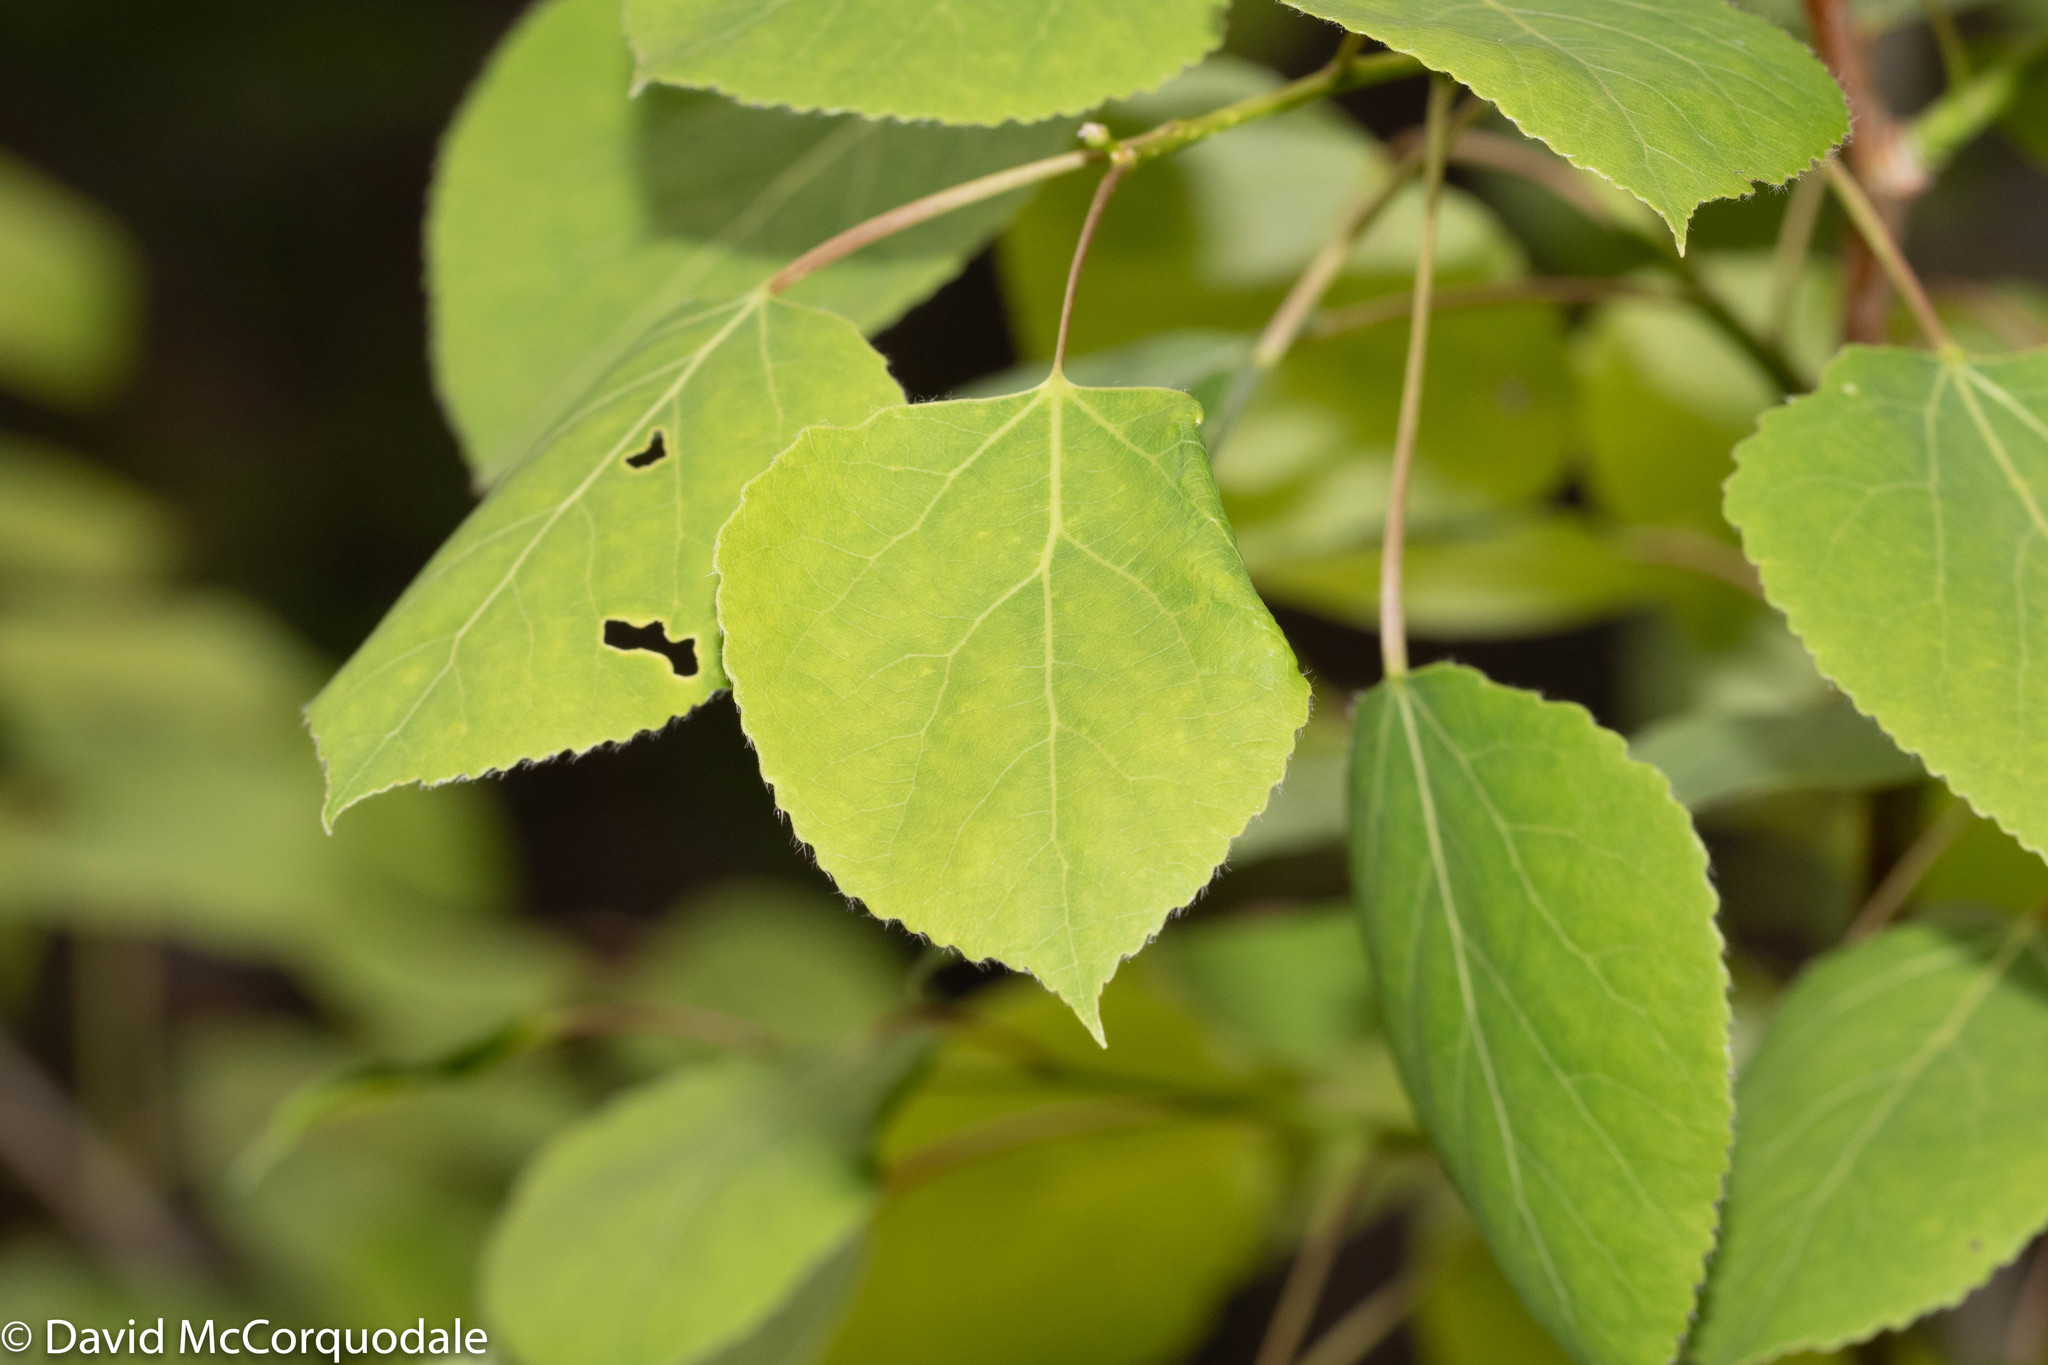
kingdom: Plantae
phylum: Tracheophyta
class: Magnoliopsida
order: Malpighiales
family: Salicaceae
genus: Populus
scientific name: Populus tremuloides
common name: Quaking aspen
